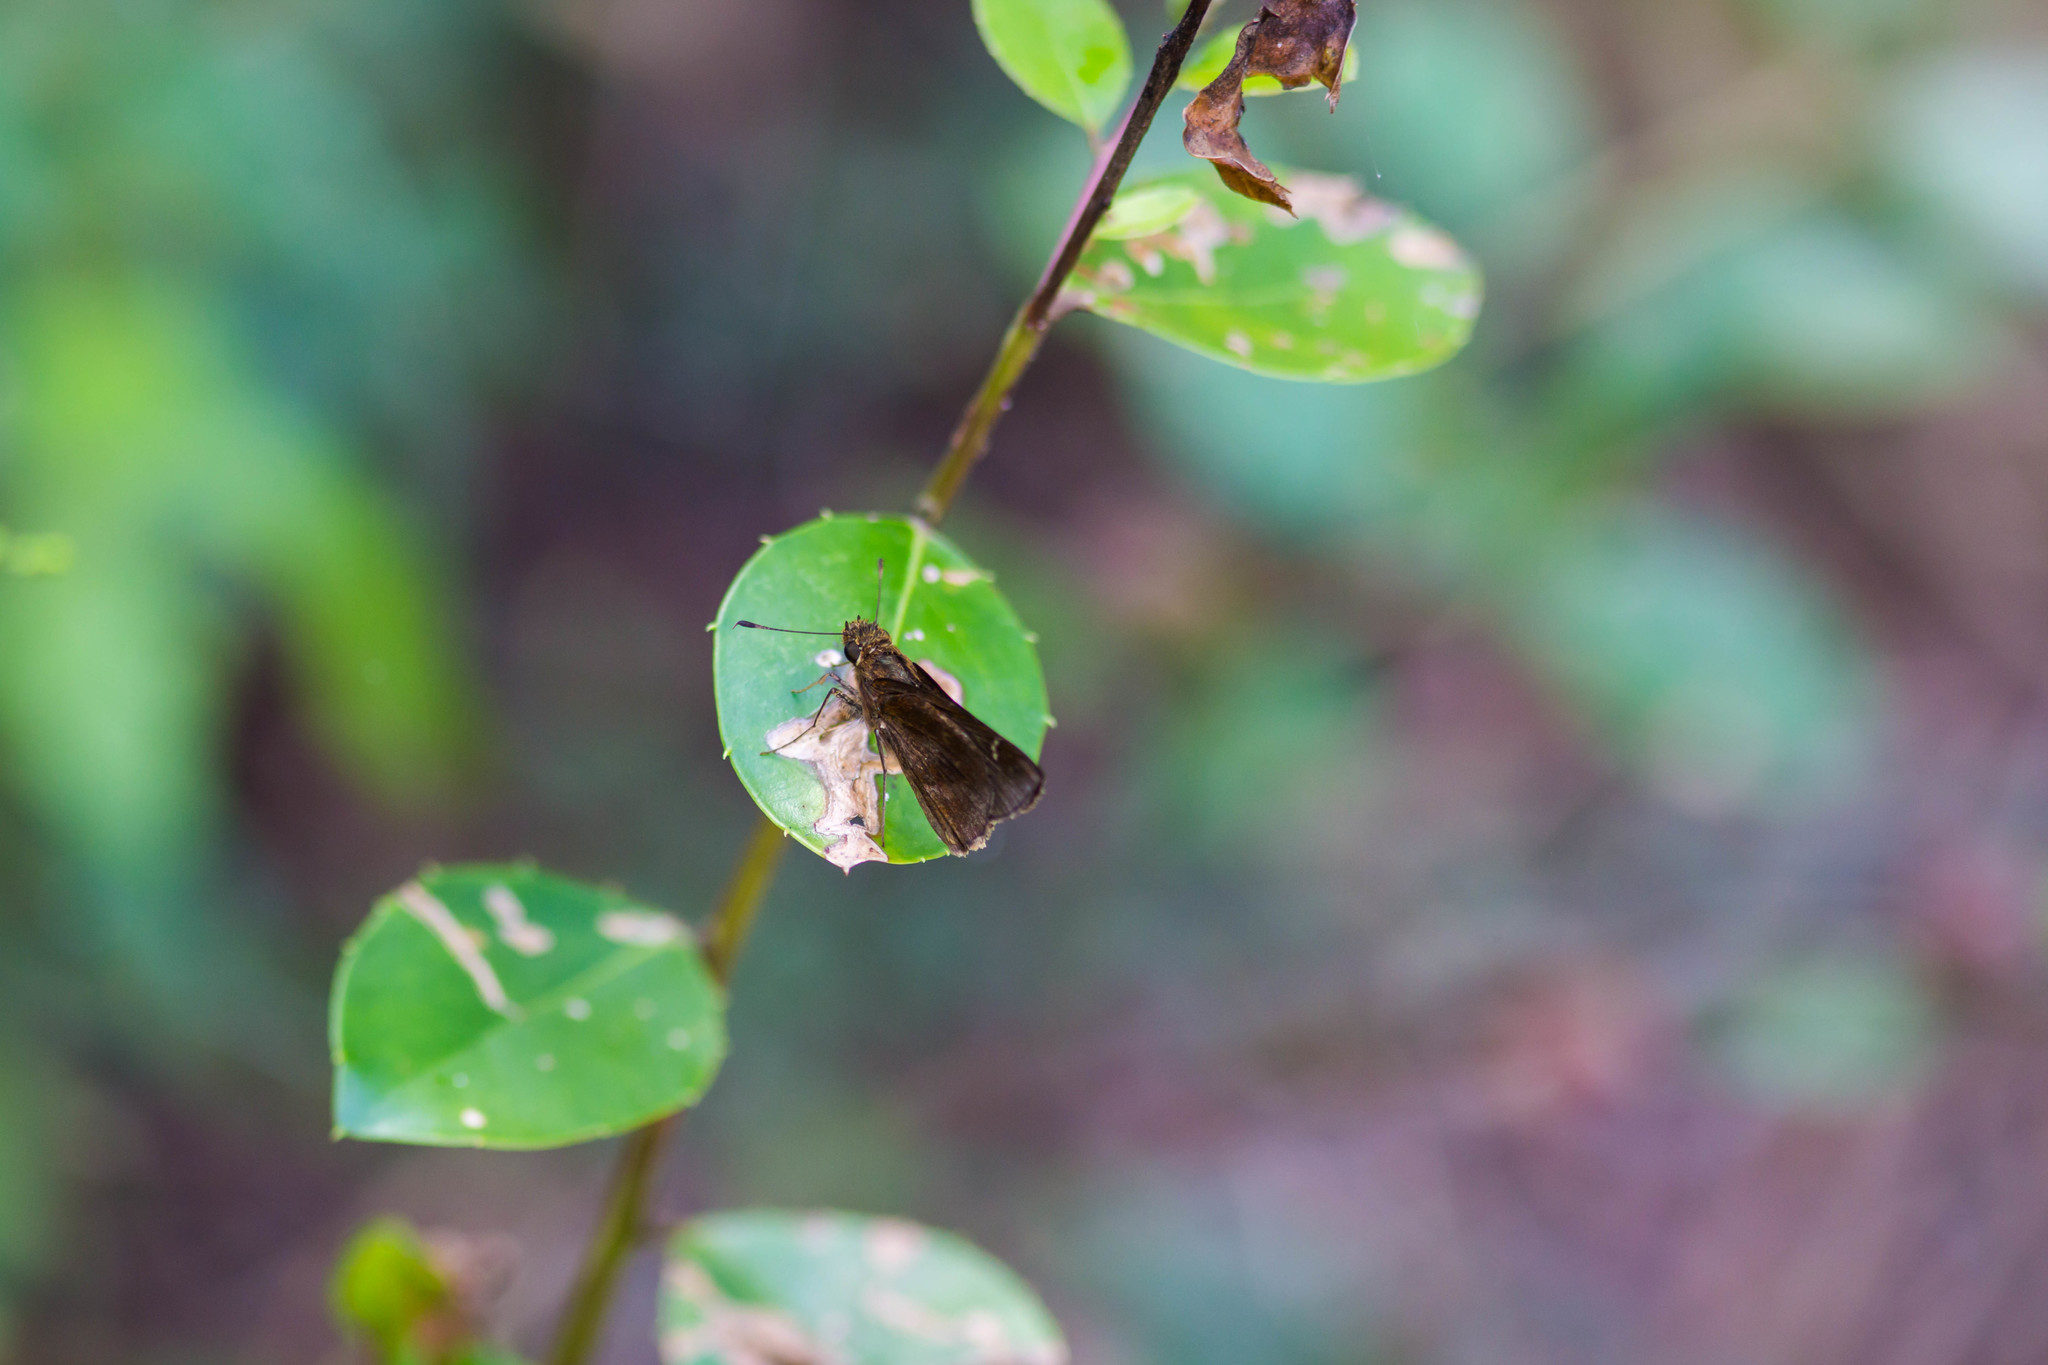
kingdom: Animalia
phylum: Arthropoda
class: Insecta
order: Lepidoptera
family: Hesperiidae
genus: Lerema
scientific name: Lerema accius
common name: Clouded skipper
